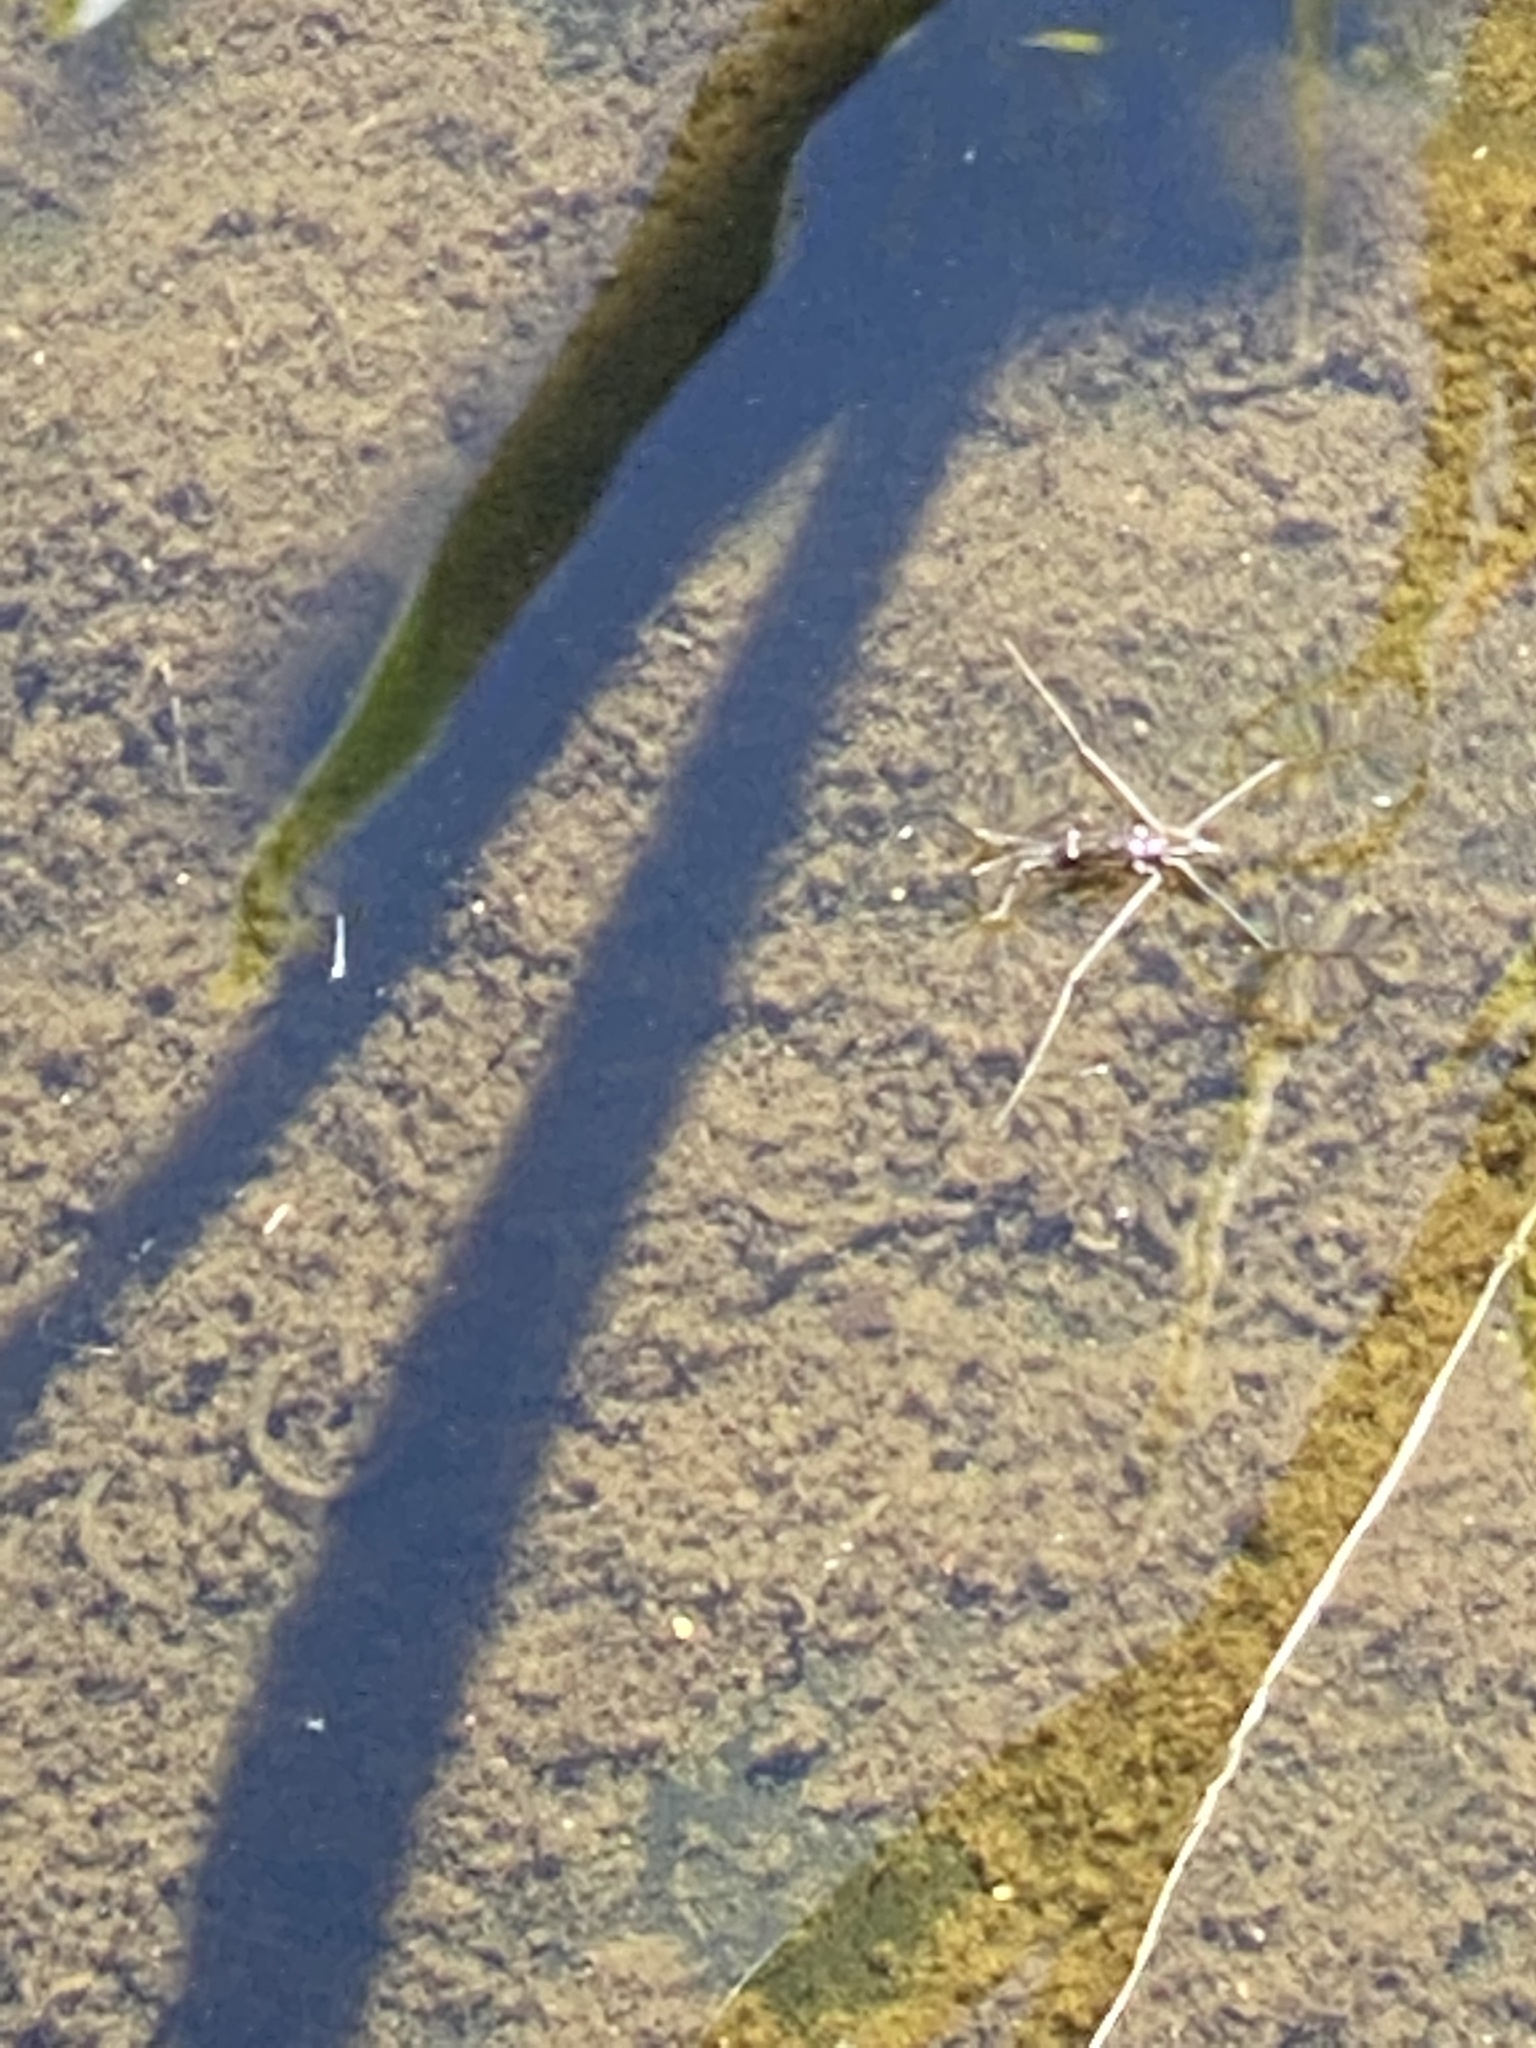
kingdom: Animalia
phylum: Arthropoda
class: Insecta
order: Hemiptera
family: Gerridae
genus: Aquarius
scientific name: Aquarius remigis
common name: Common water strider
